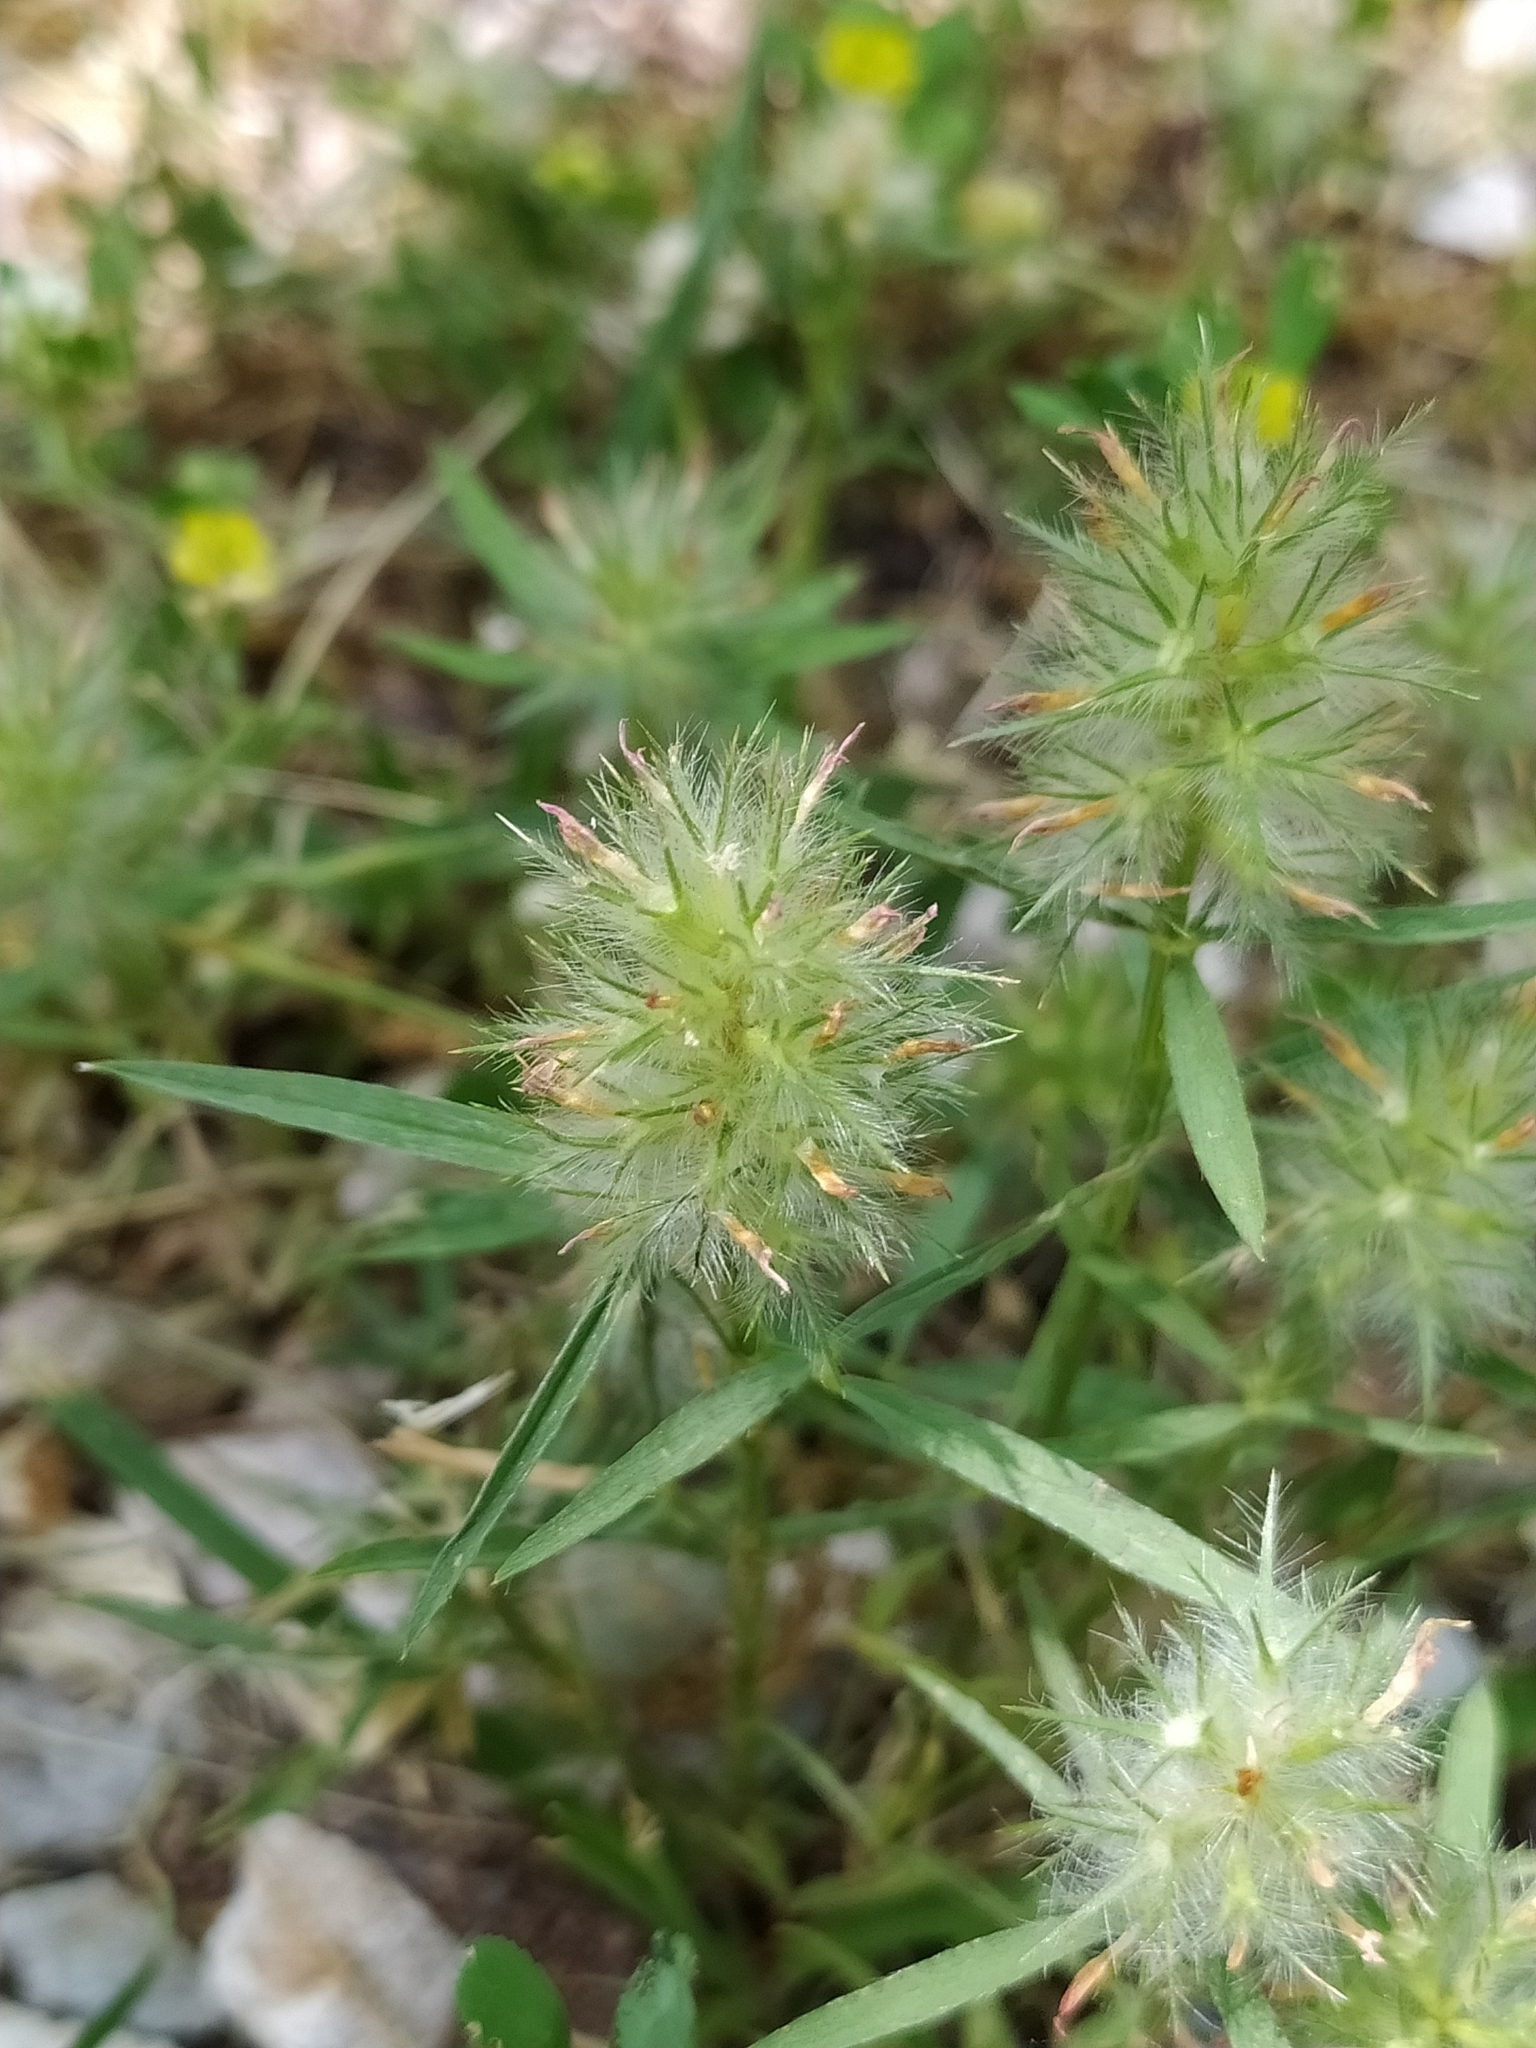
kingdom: Plantae
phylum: Tracheophyta
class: Magnoliopsida
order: Fabales
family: Fabaceae
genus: Trifolium
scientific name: Trifolium angustifolium
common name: Narrow clover
